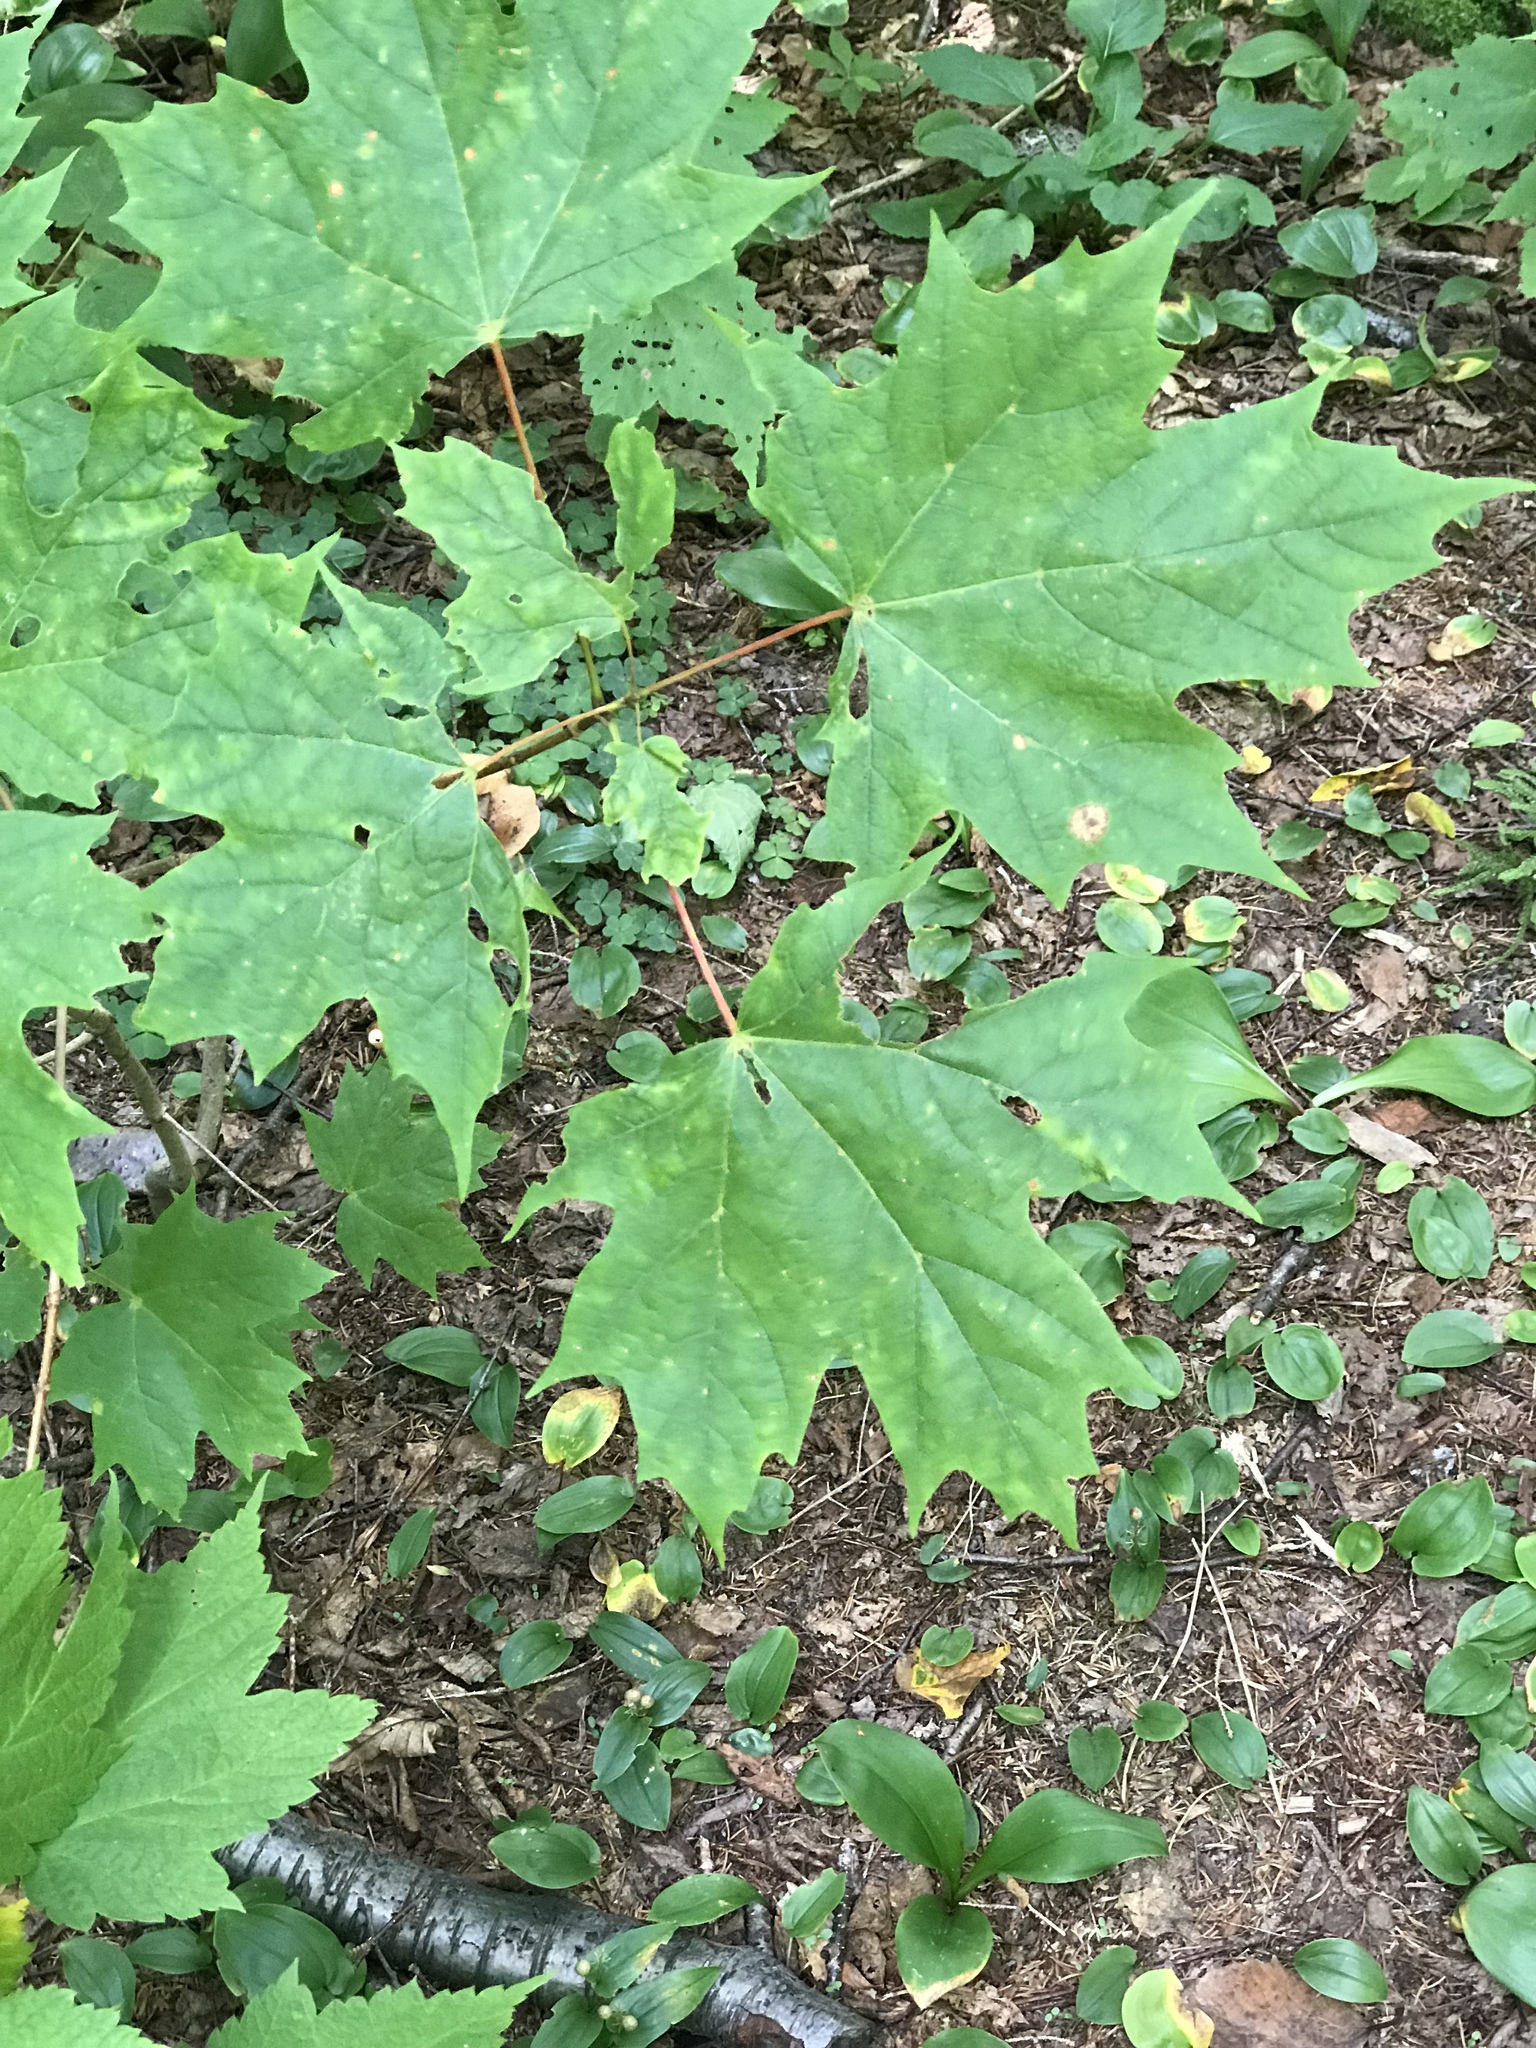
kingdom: Plantae
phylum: Tracheophyta
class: Magnoliopsida
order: Sapindales
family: Sapindaceae
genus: Acer
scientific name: Acer saccharum
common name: Sugar maple
